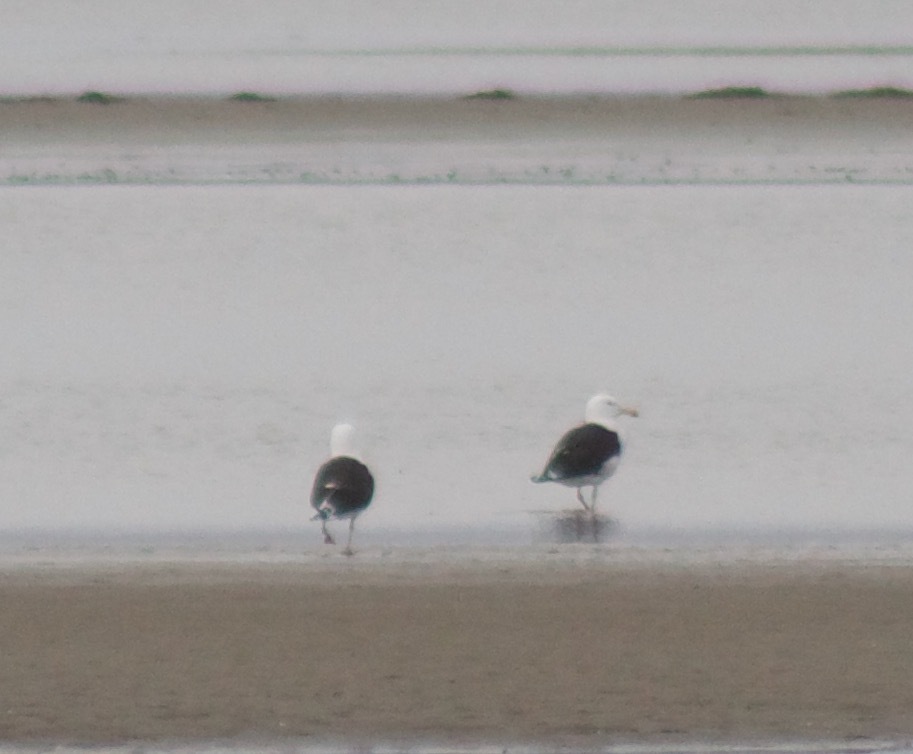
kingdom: Animalia
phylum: Chordata
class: Aves
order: Charadriiformes
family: Laridae
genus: Larus
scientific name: Larus marinus
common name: Great black-backed gull
